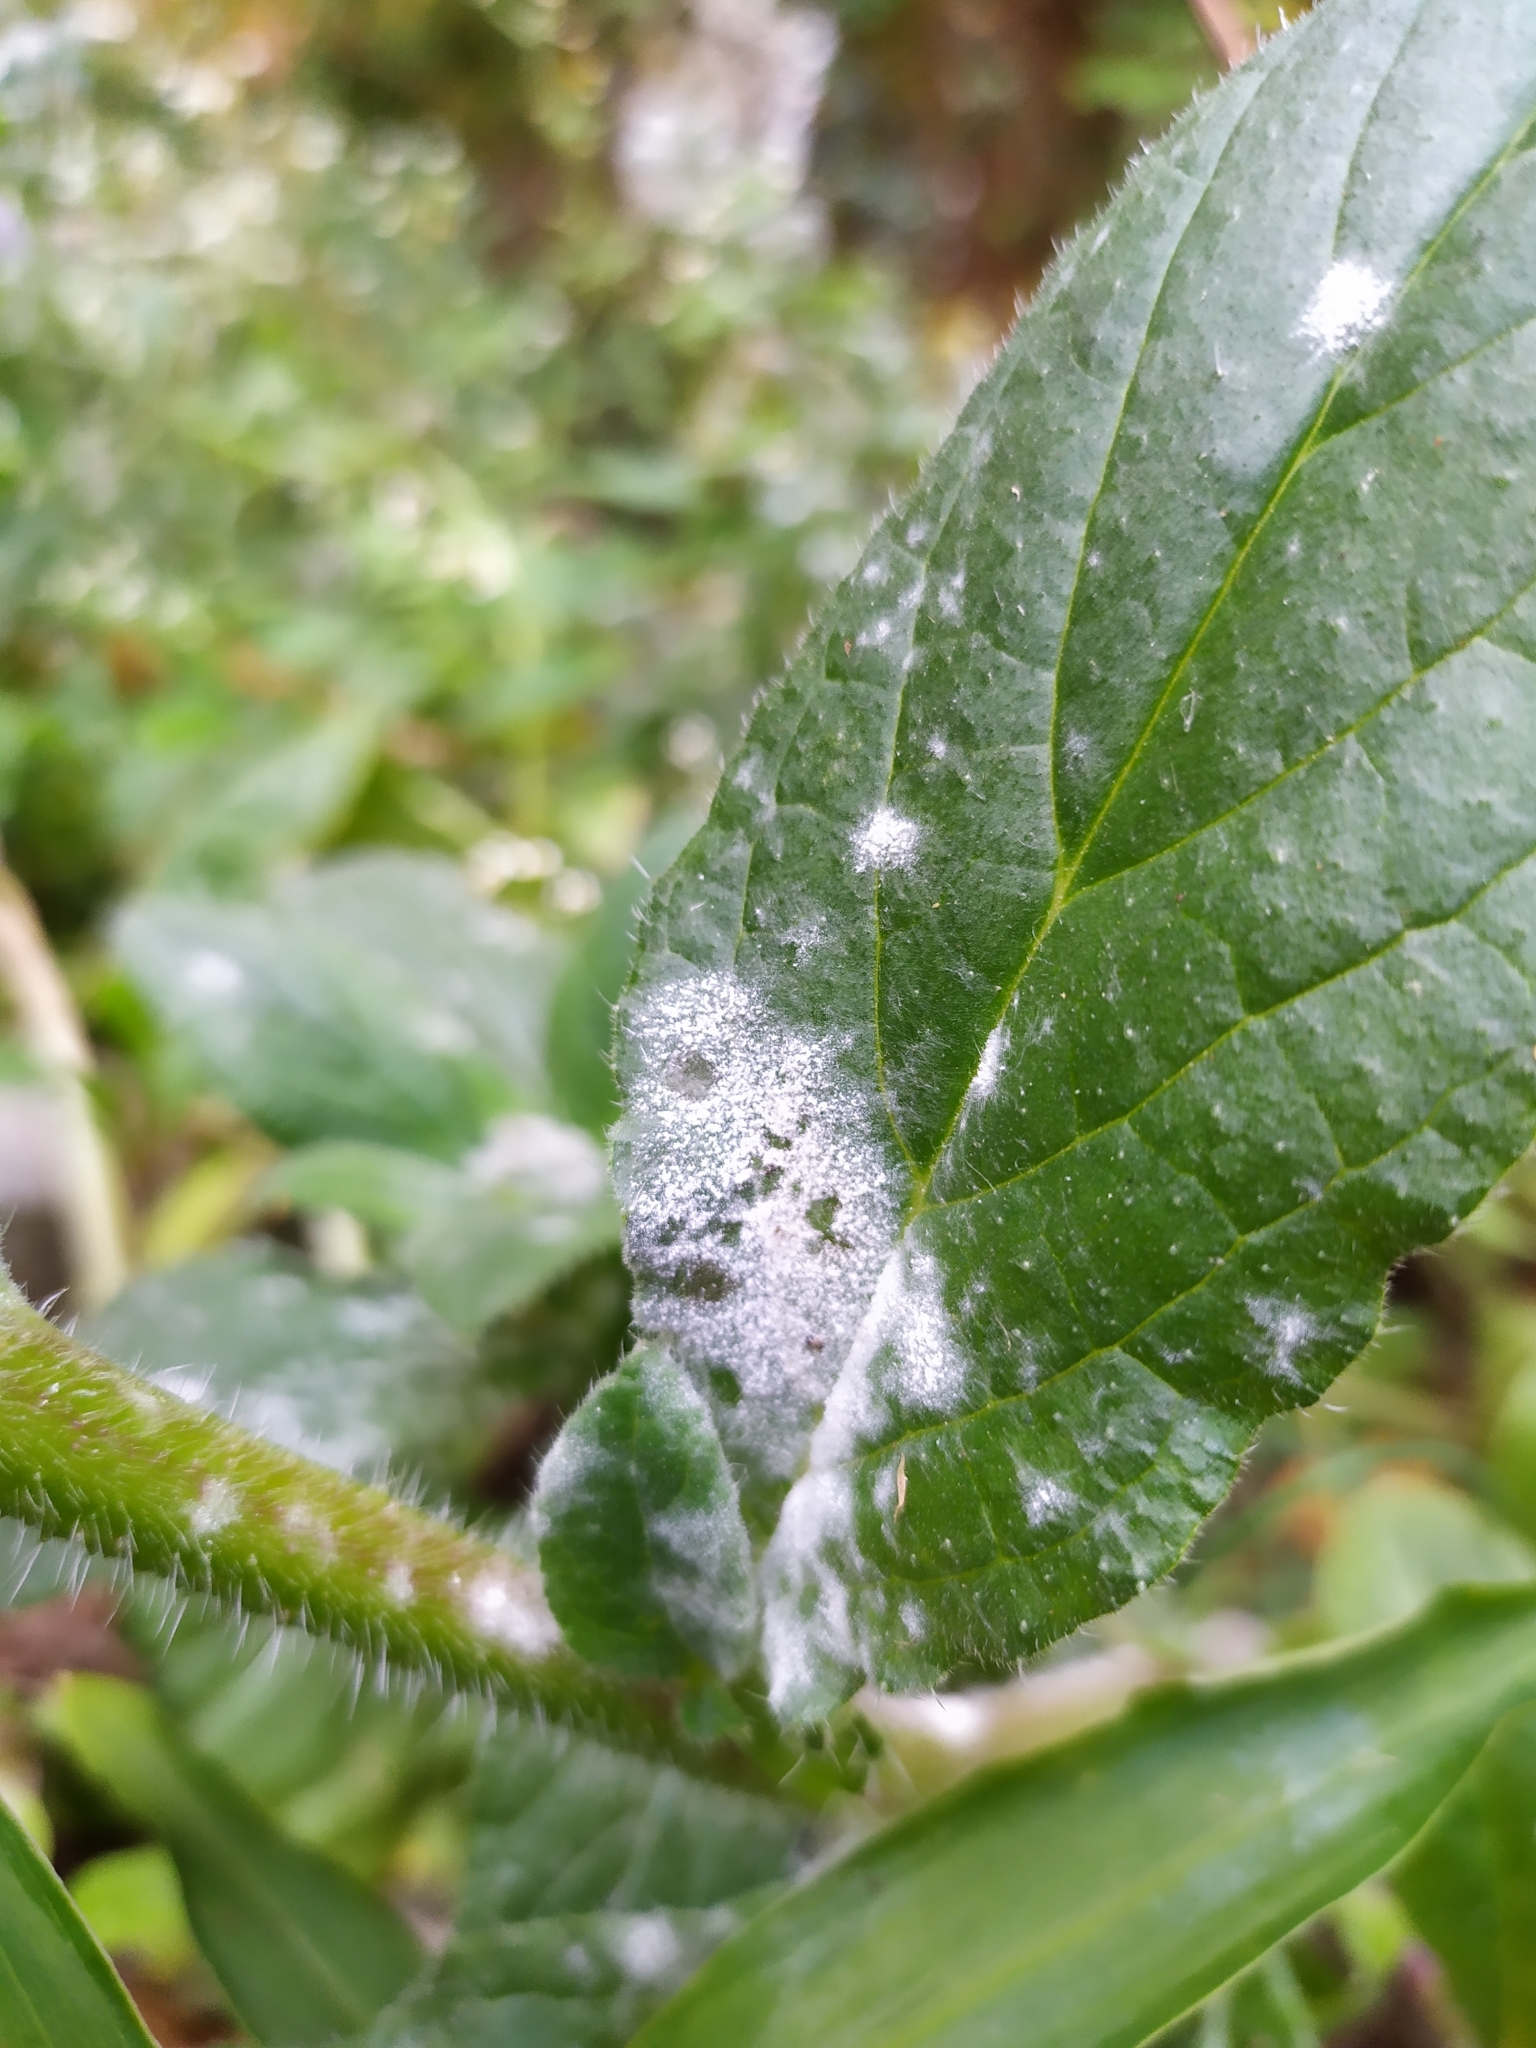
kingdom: Fungi
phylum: Ascomycota
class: Leotiomycetes
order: Helotiales
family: Erysiphaceae
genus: Golovinomyces
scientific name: Golovinomyces cynoglossi
